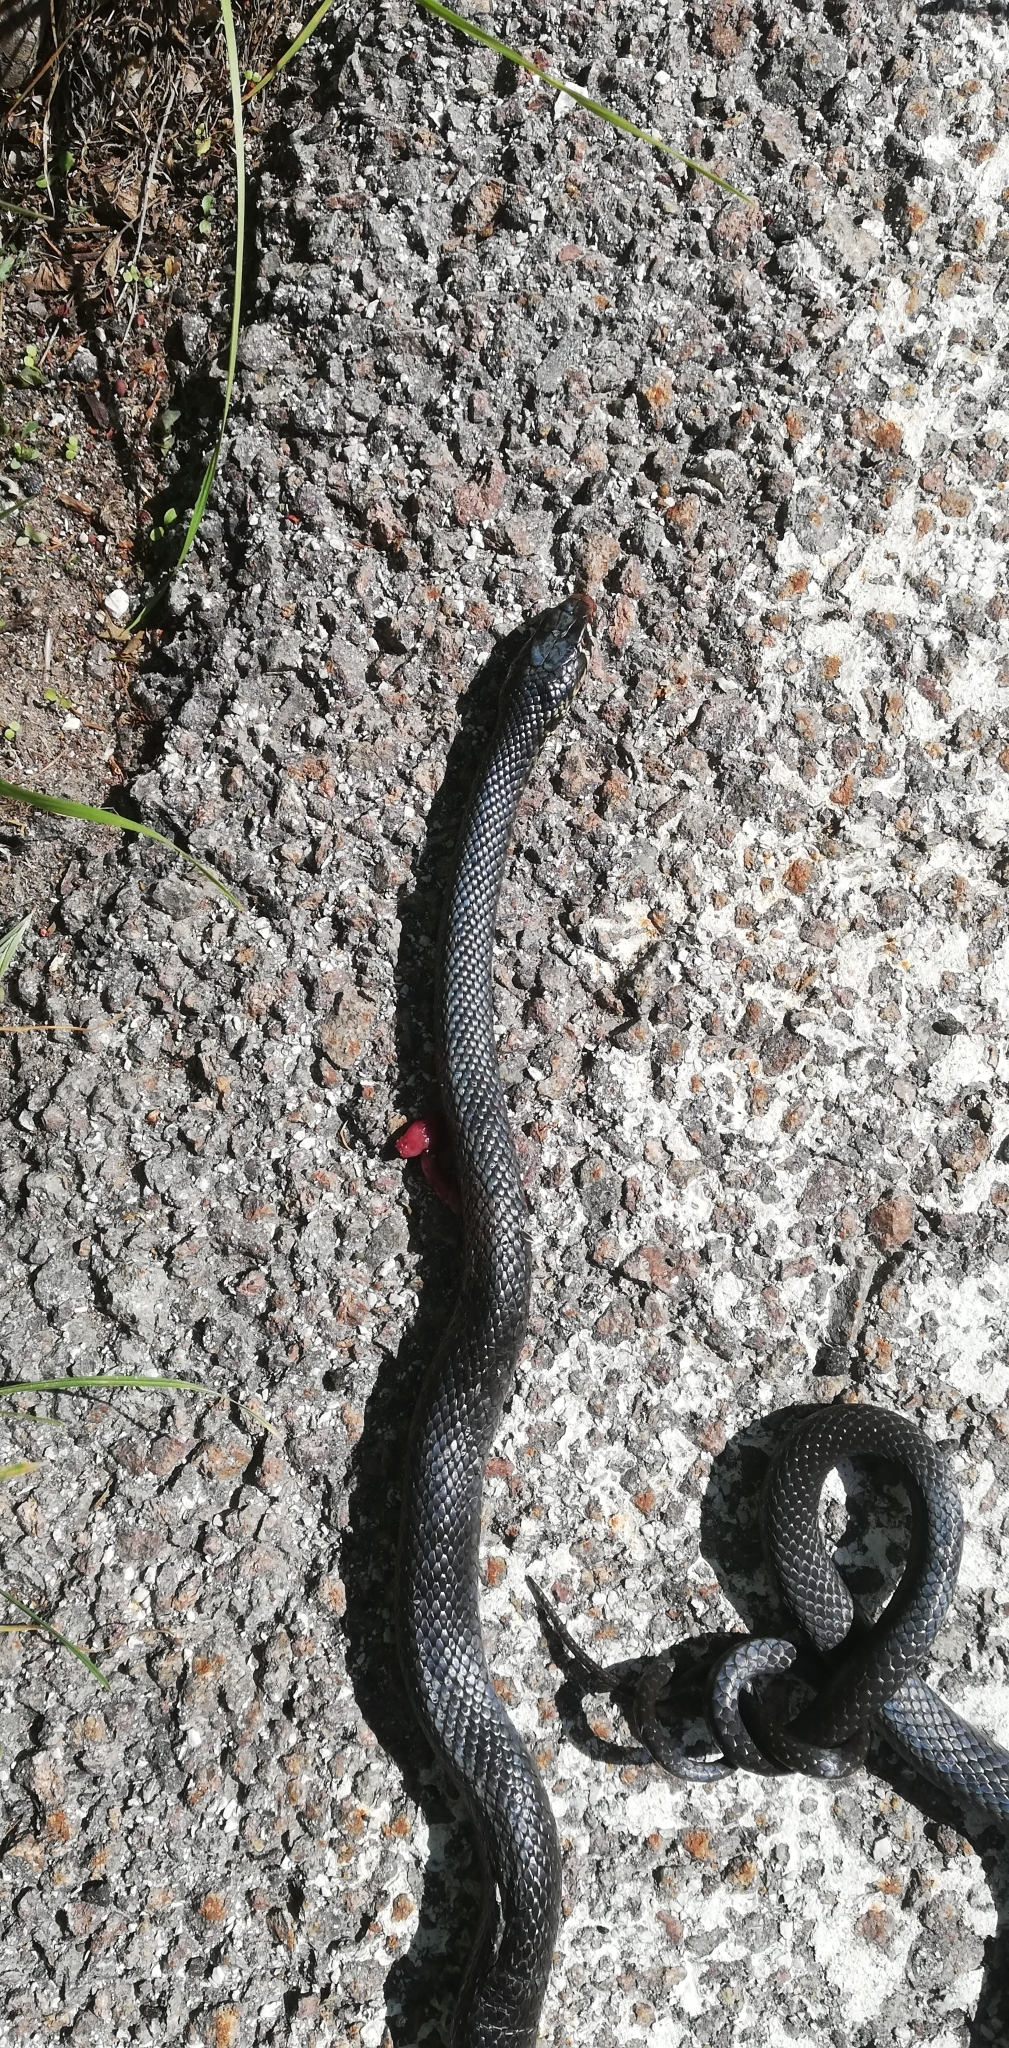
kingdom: Animalia
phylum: Chordata
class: Squamata
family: Colubridae
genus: Hierophis
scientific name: Hierophis viridiflavus
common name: Green whip snake
